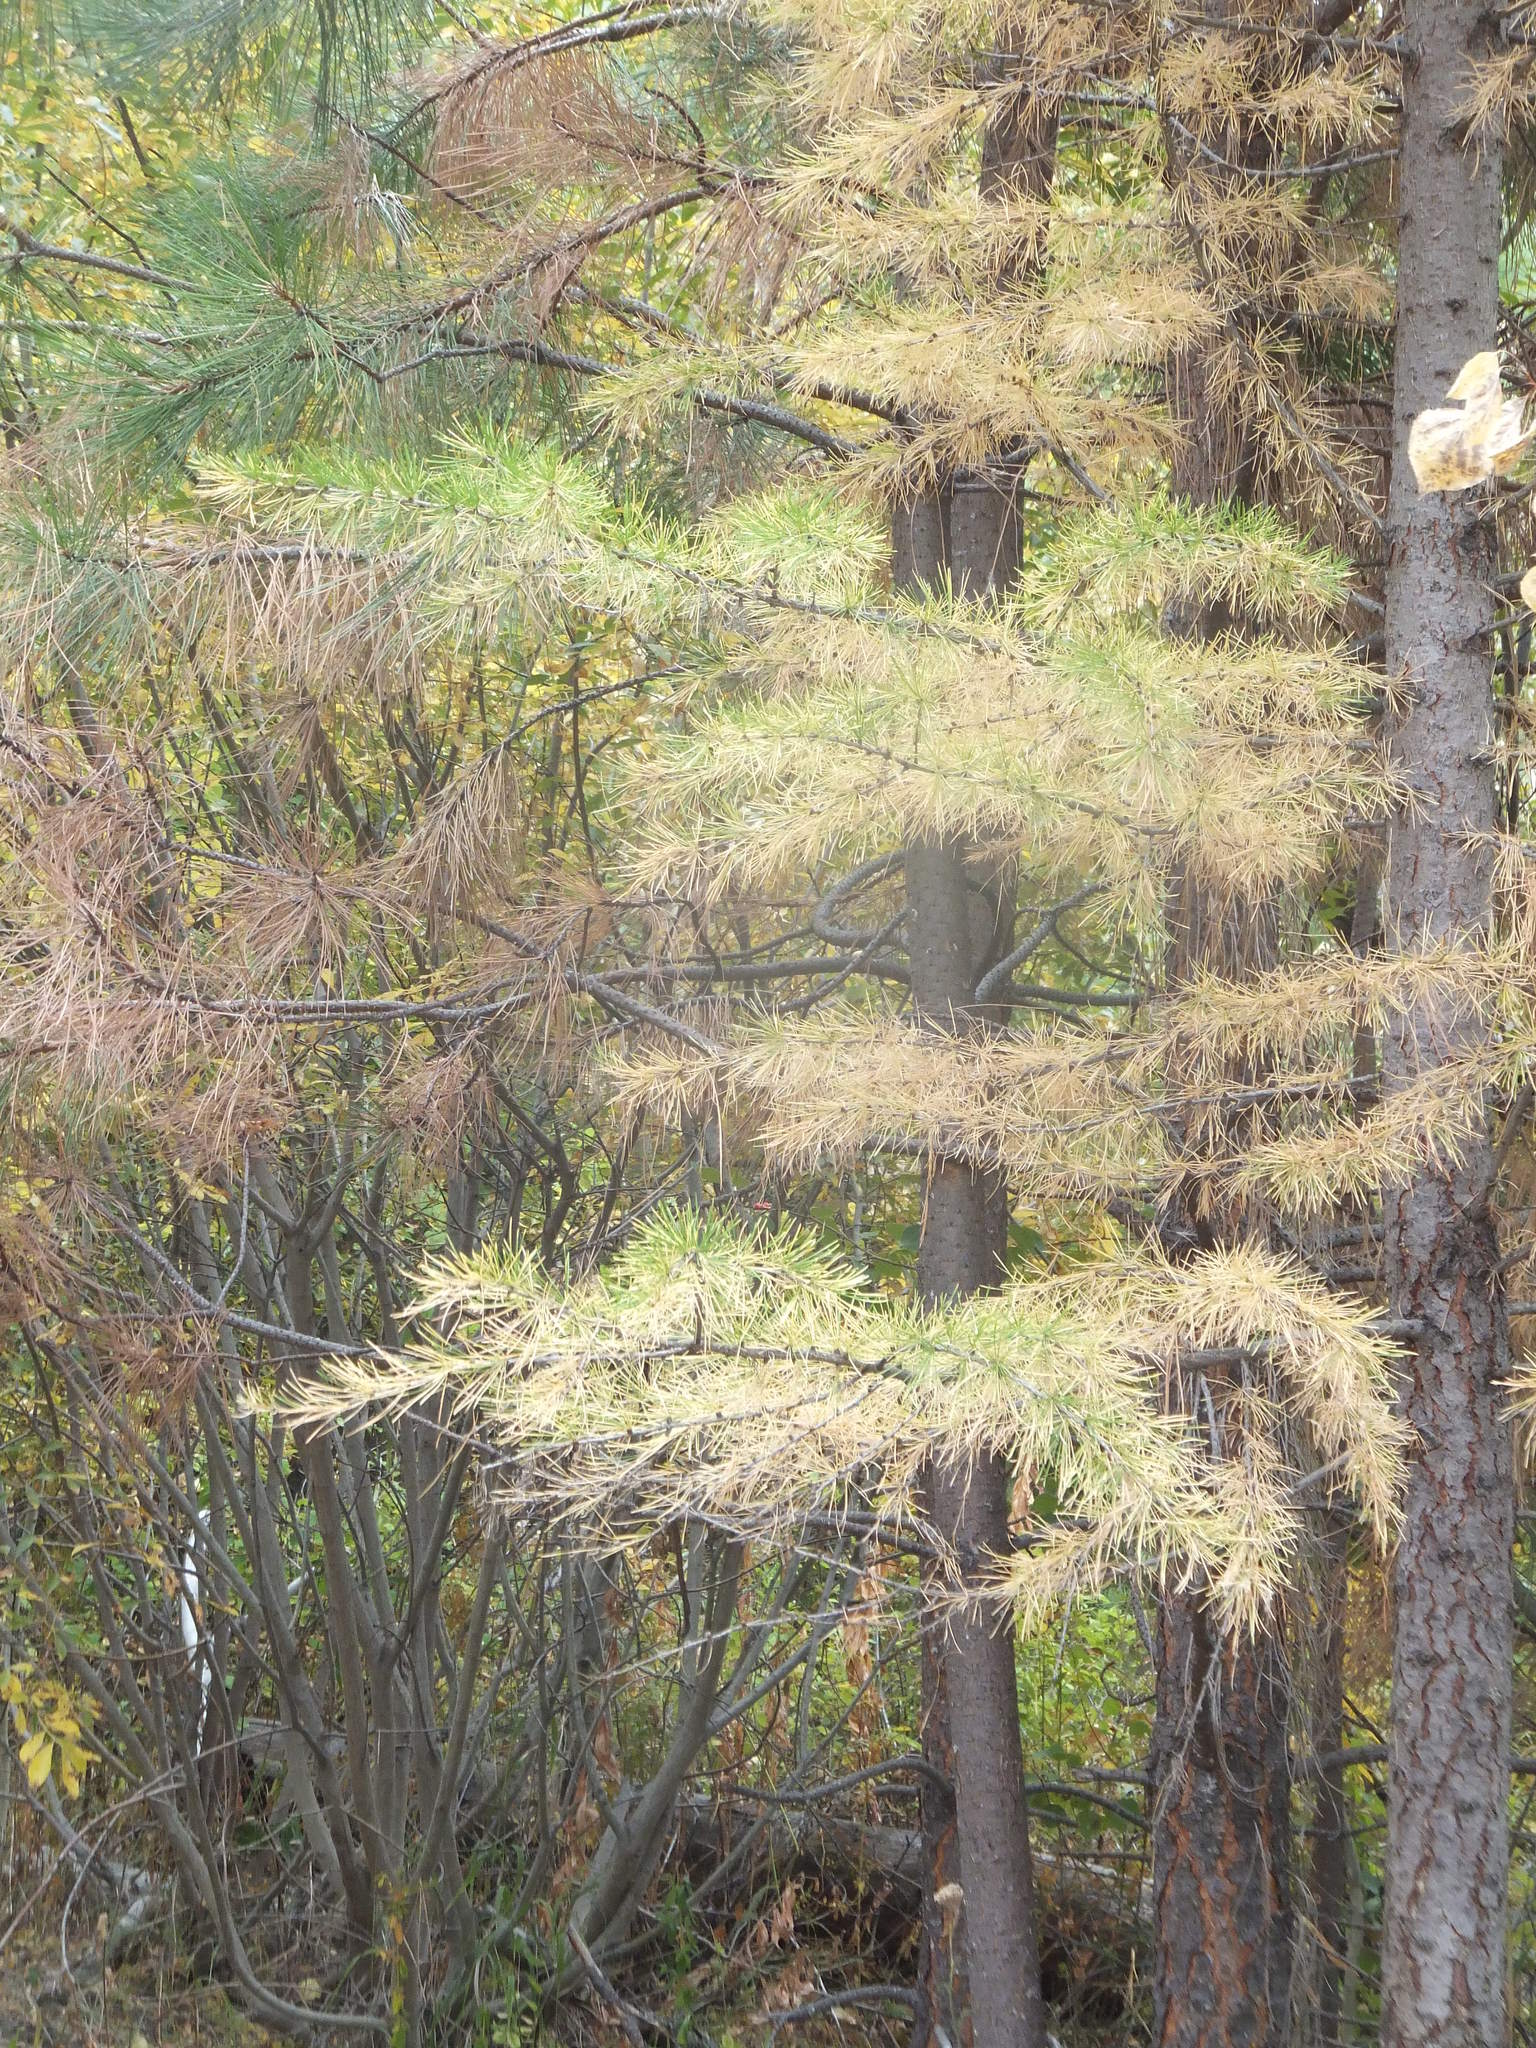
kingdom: Plantae
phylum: Tracheophyta
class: Pinopsida
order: Pinales
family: Pinaceae
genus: Larix
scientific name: Larix occidentalis
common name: Western larch
